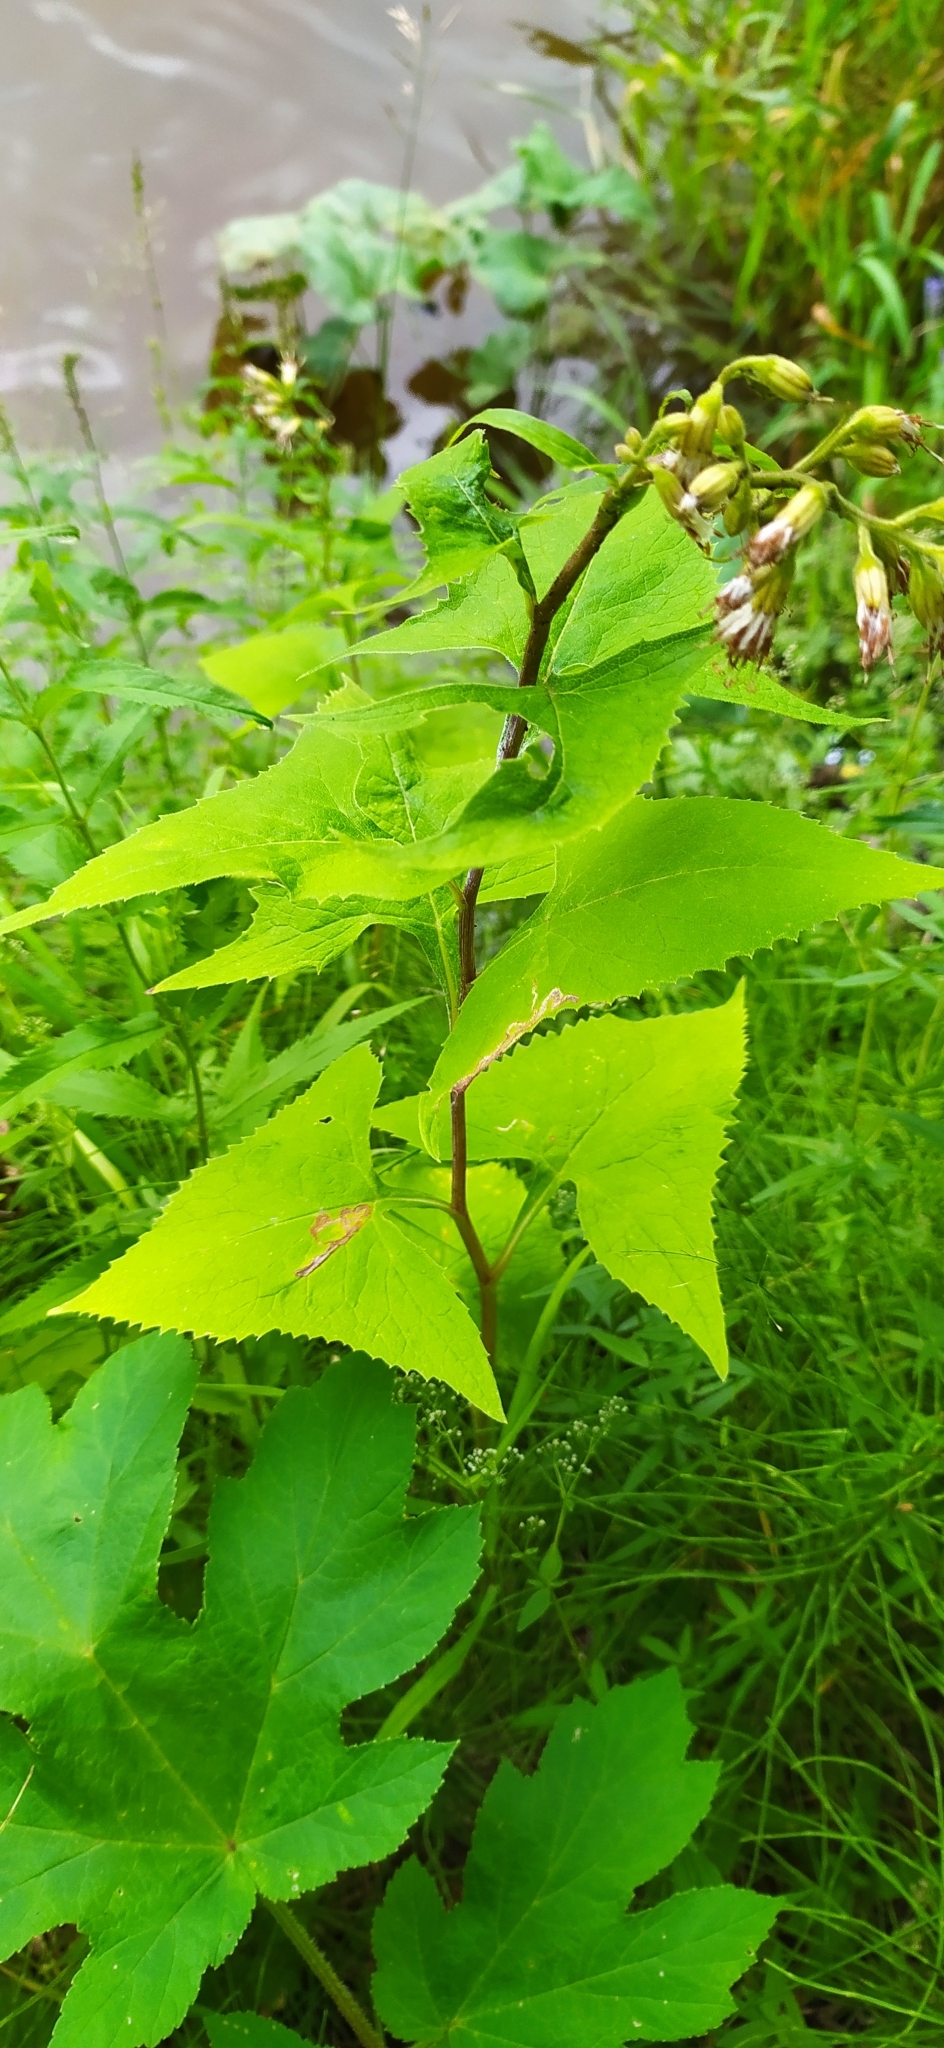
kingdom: Plantae
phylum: Tracheophyta
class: Magnoliopsida
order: Asterales
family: Asteraceae
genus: Parasenecio
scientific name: Parasenecio hastatus
